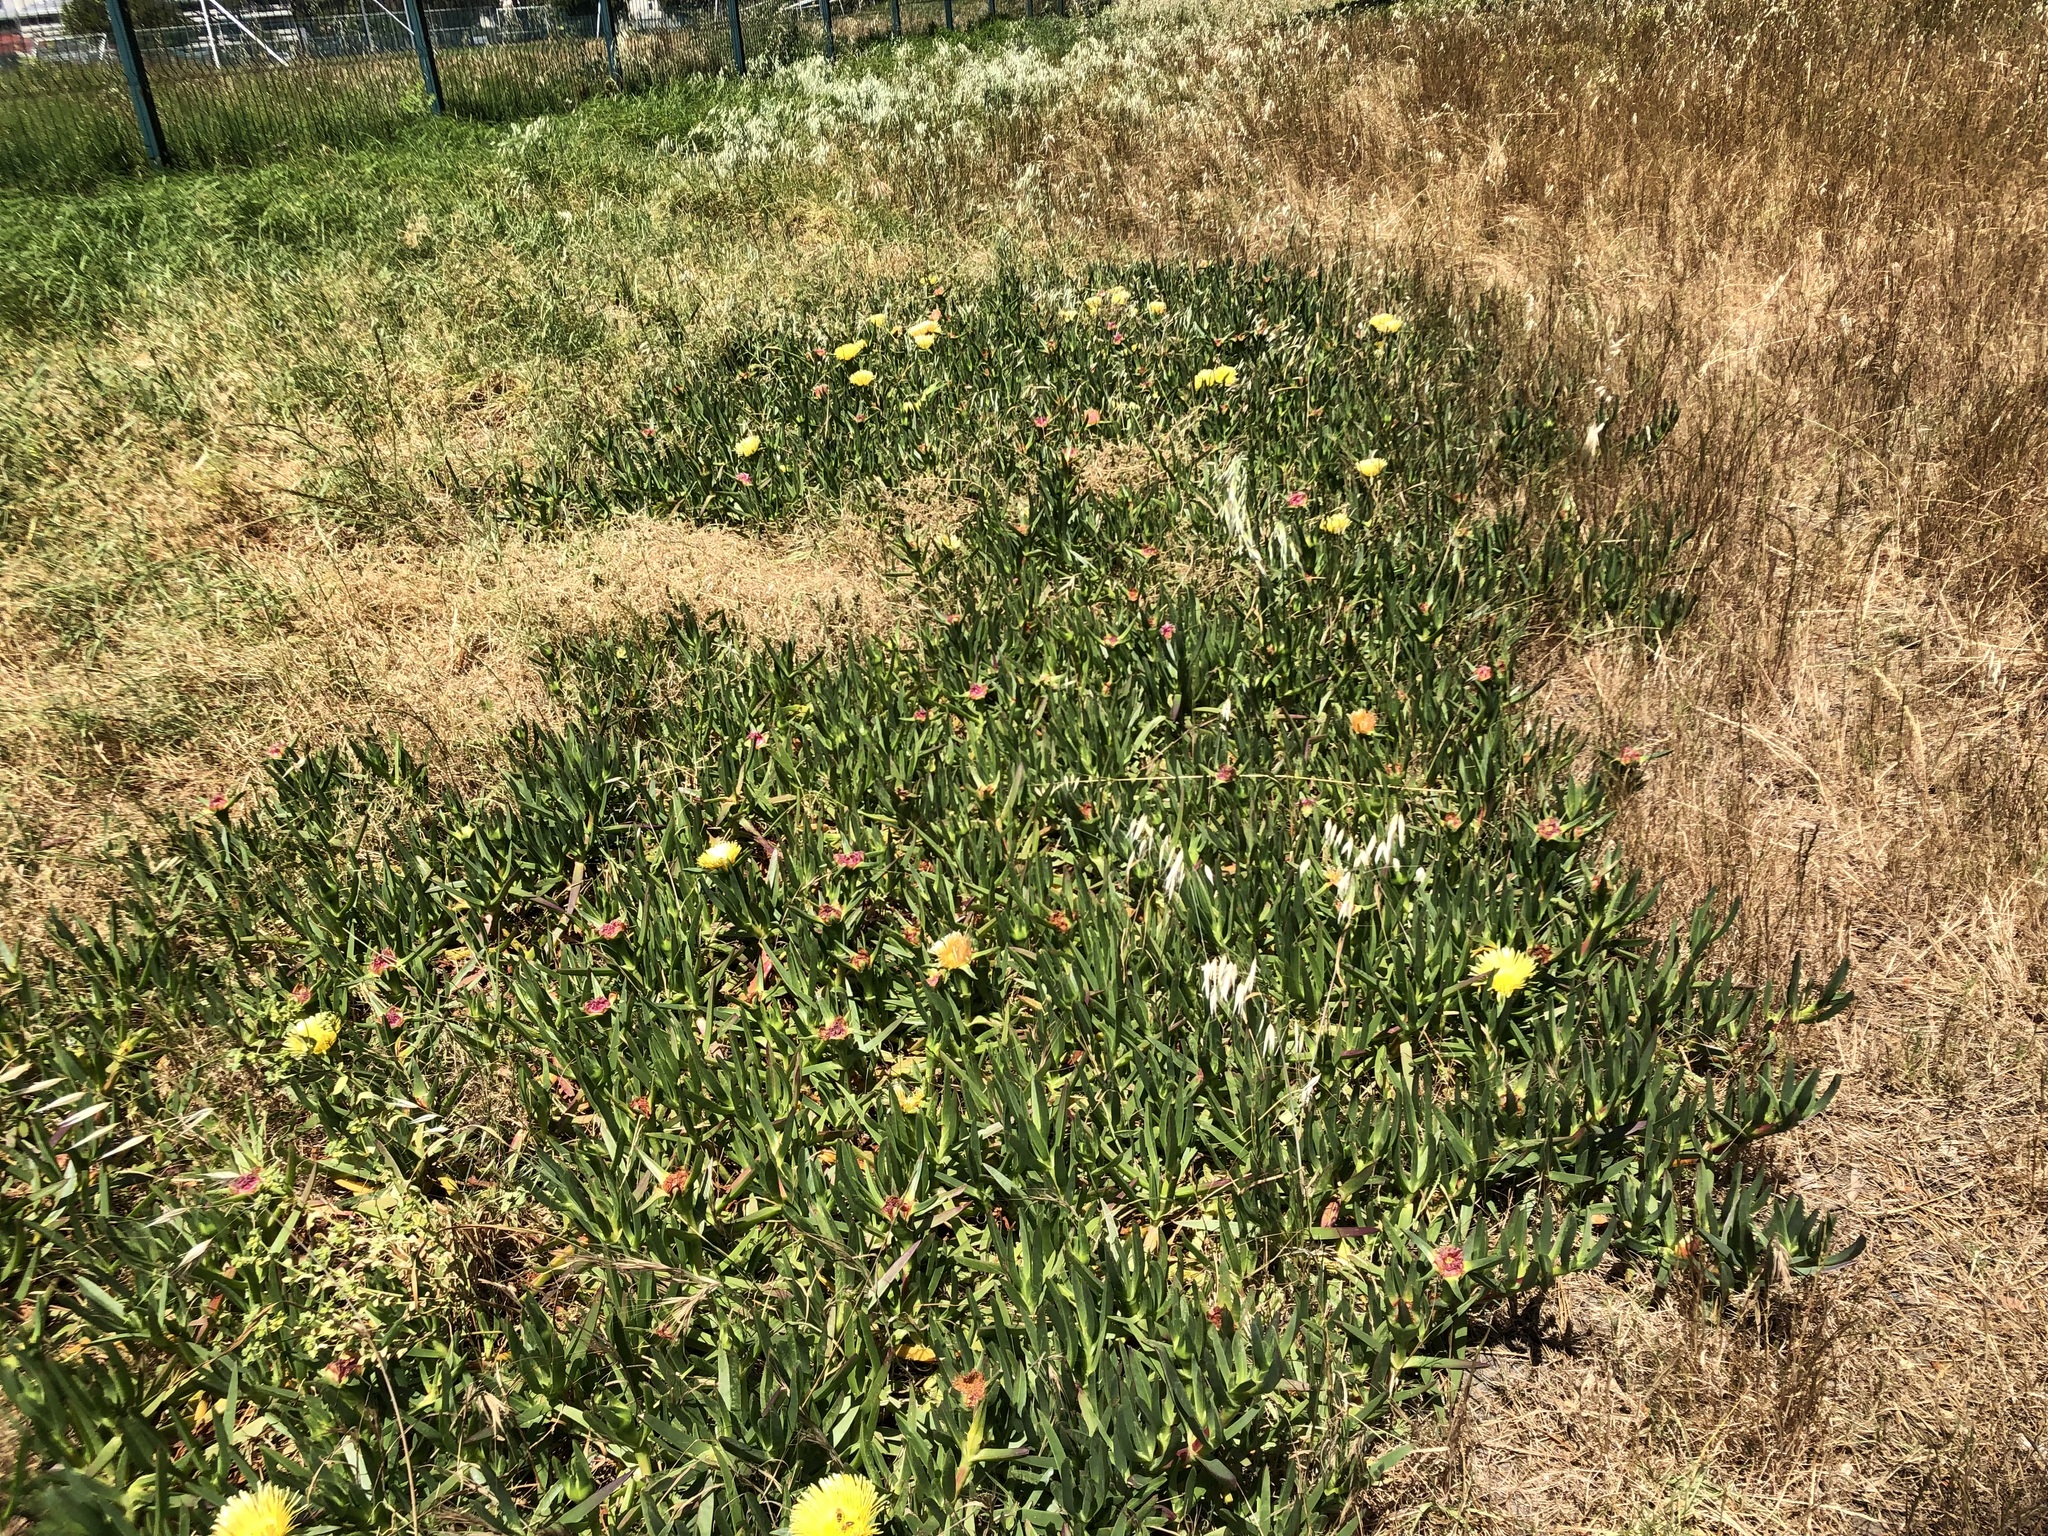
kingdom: Plantae
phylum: Tracheophyta
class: Magnoliopsida
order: Caryophyllales
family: Aizoaceae
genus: Carpobrotus
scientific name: Carpobrotus edulis
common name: Hottentot-fig
